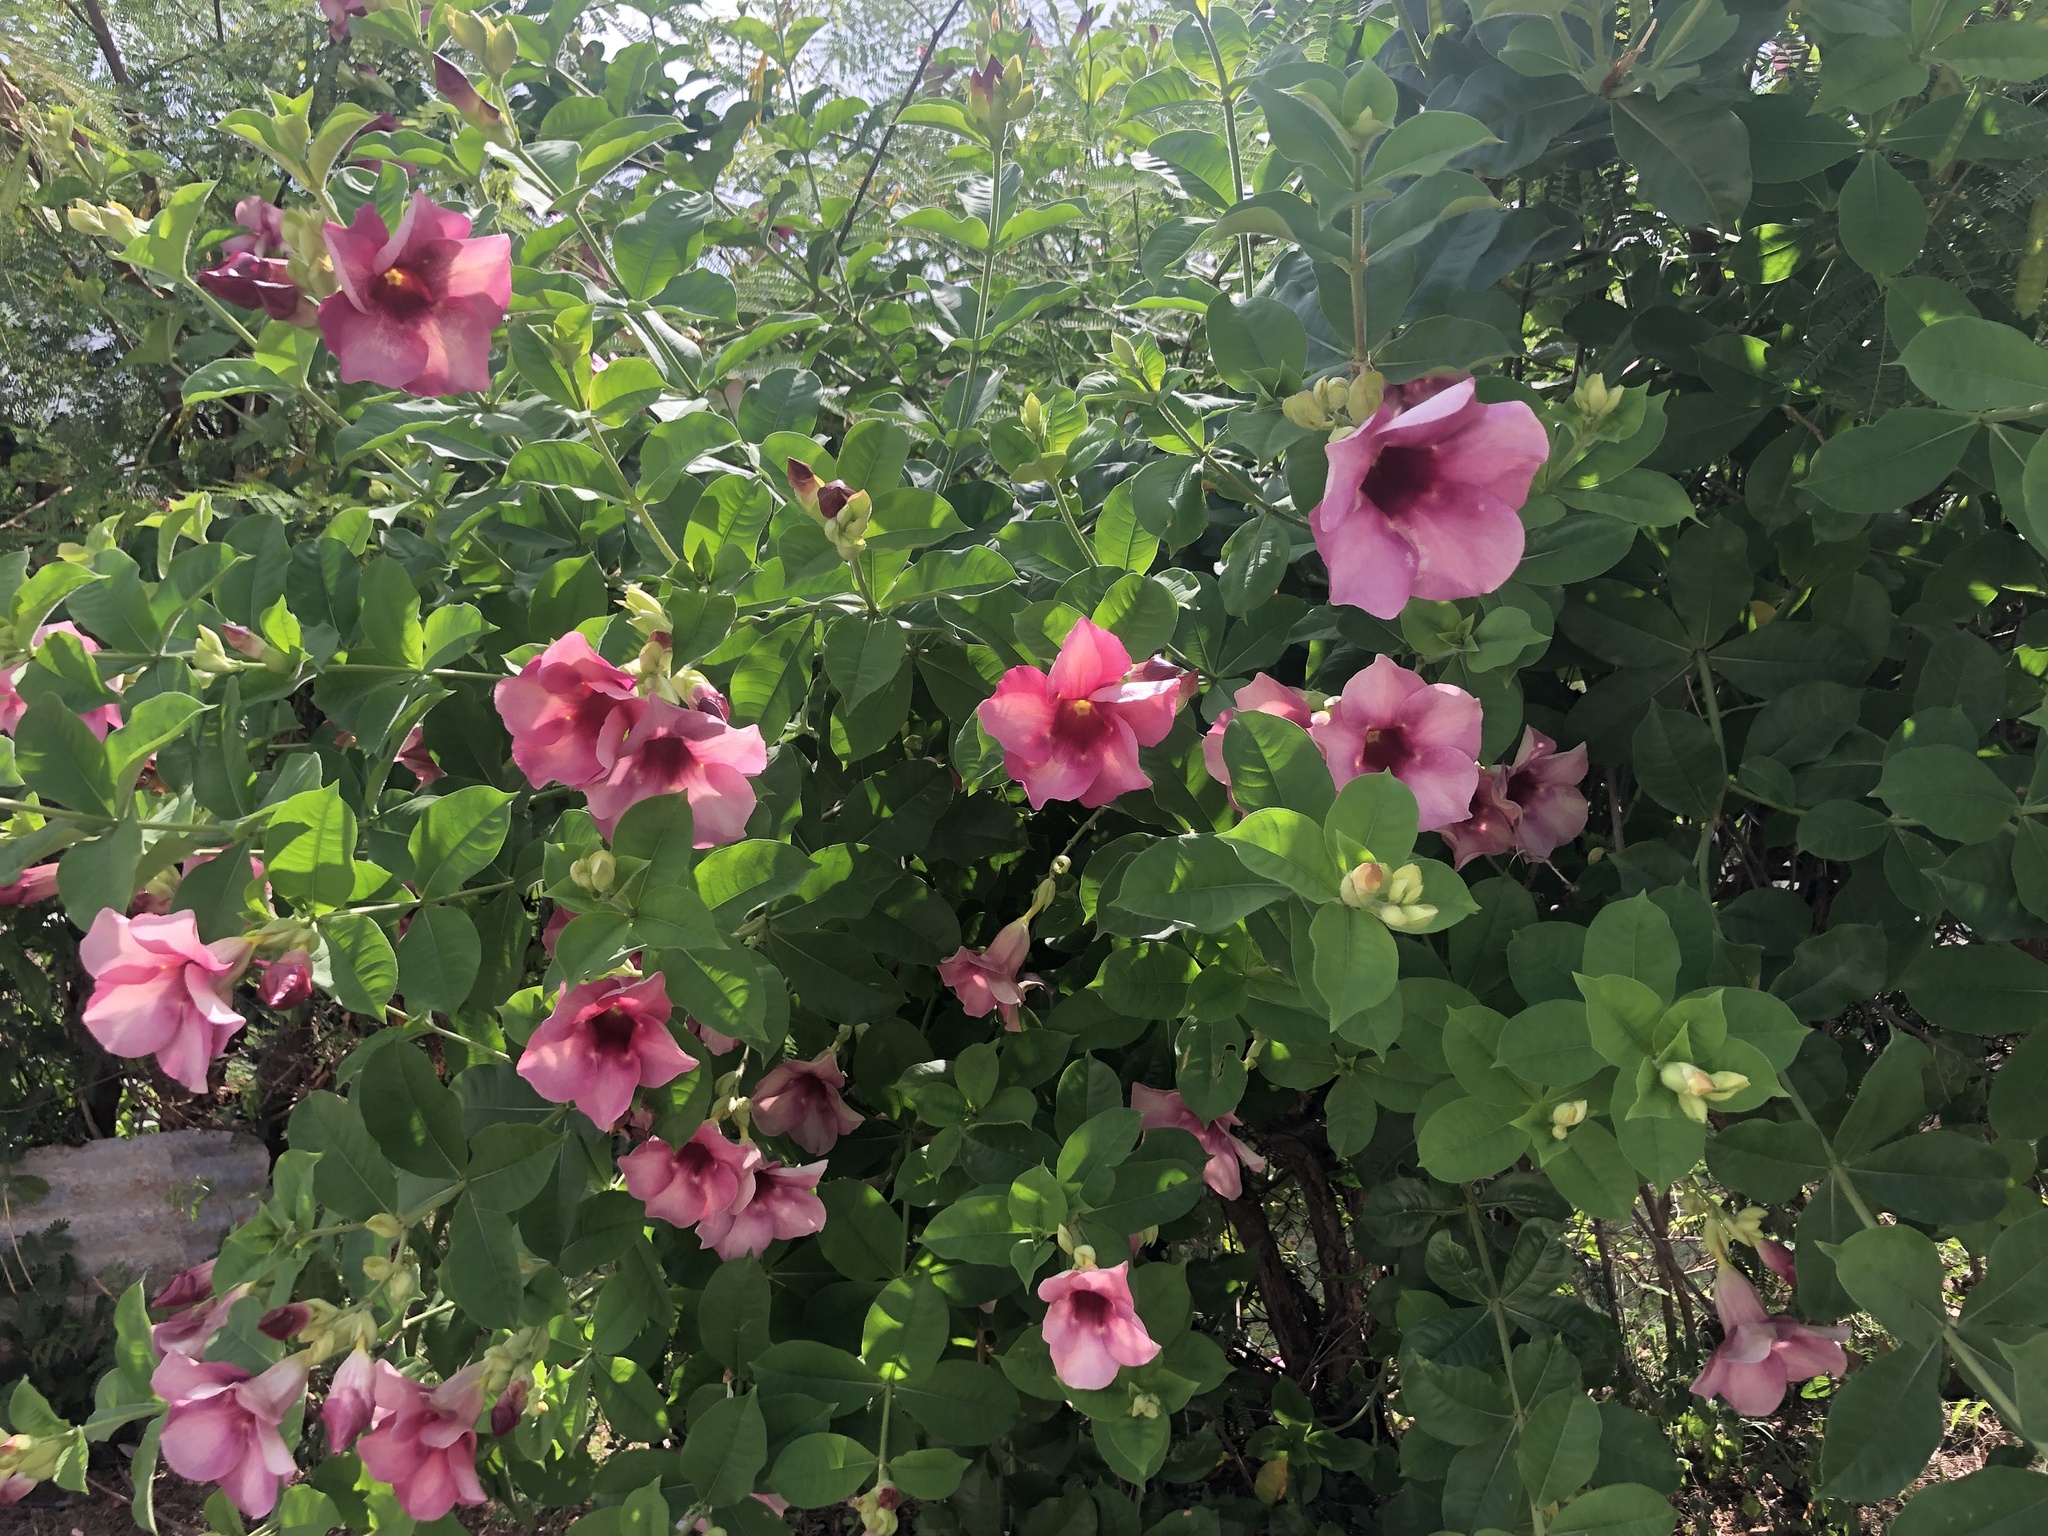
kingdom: Plantae
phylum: Tracheophyta
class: Magnoliopsida
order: Gentianales
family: Apocynaceae
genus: Allamanda
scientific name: Allamanda blanchetii
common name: Purple allamanda
